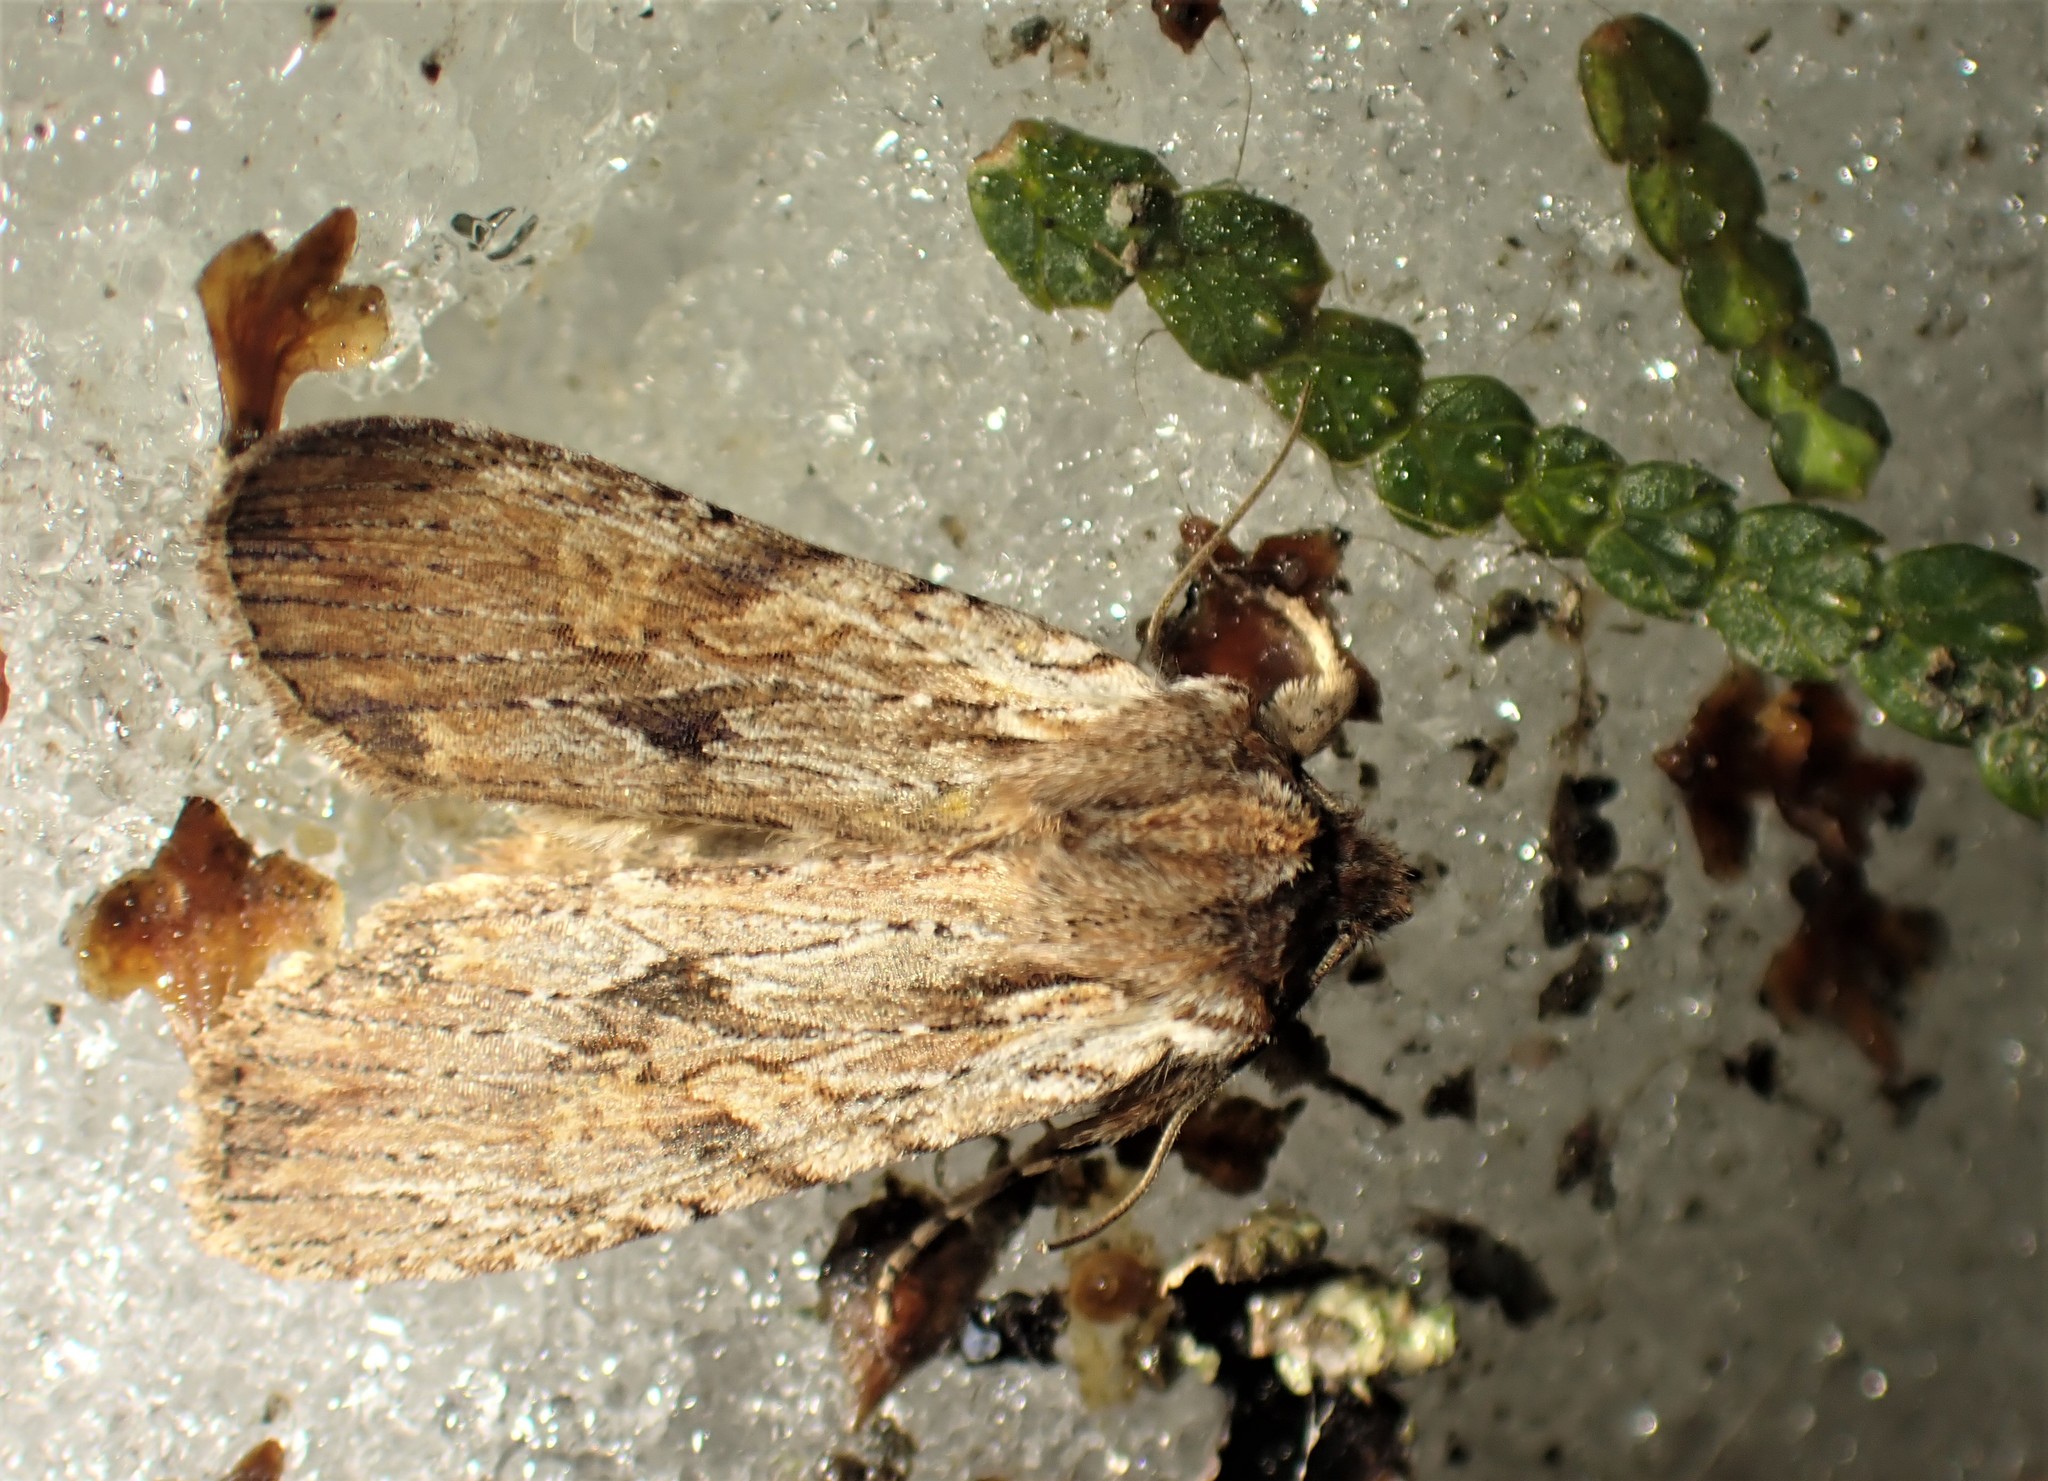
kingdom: Animalia
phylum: Arthropoda
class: Insecta
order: Lepidoptera
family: Noctuidae
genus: Lithophane
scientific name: Lithophane innominata
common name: Nameless pinion moth
